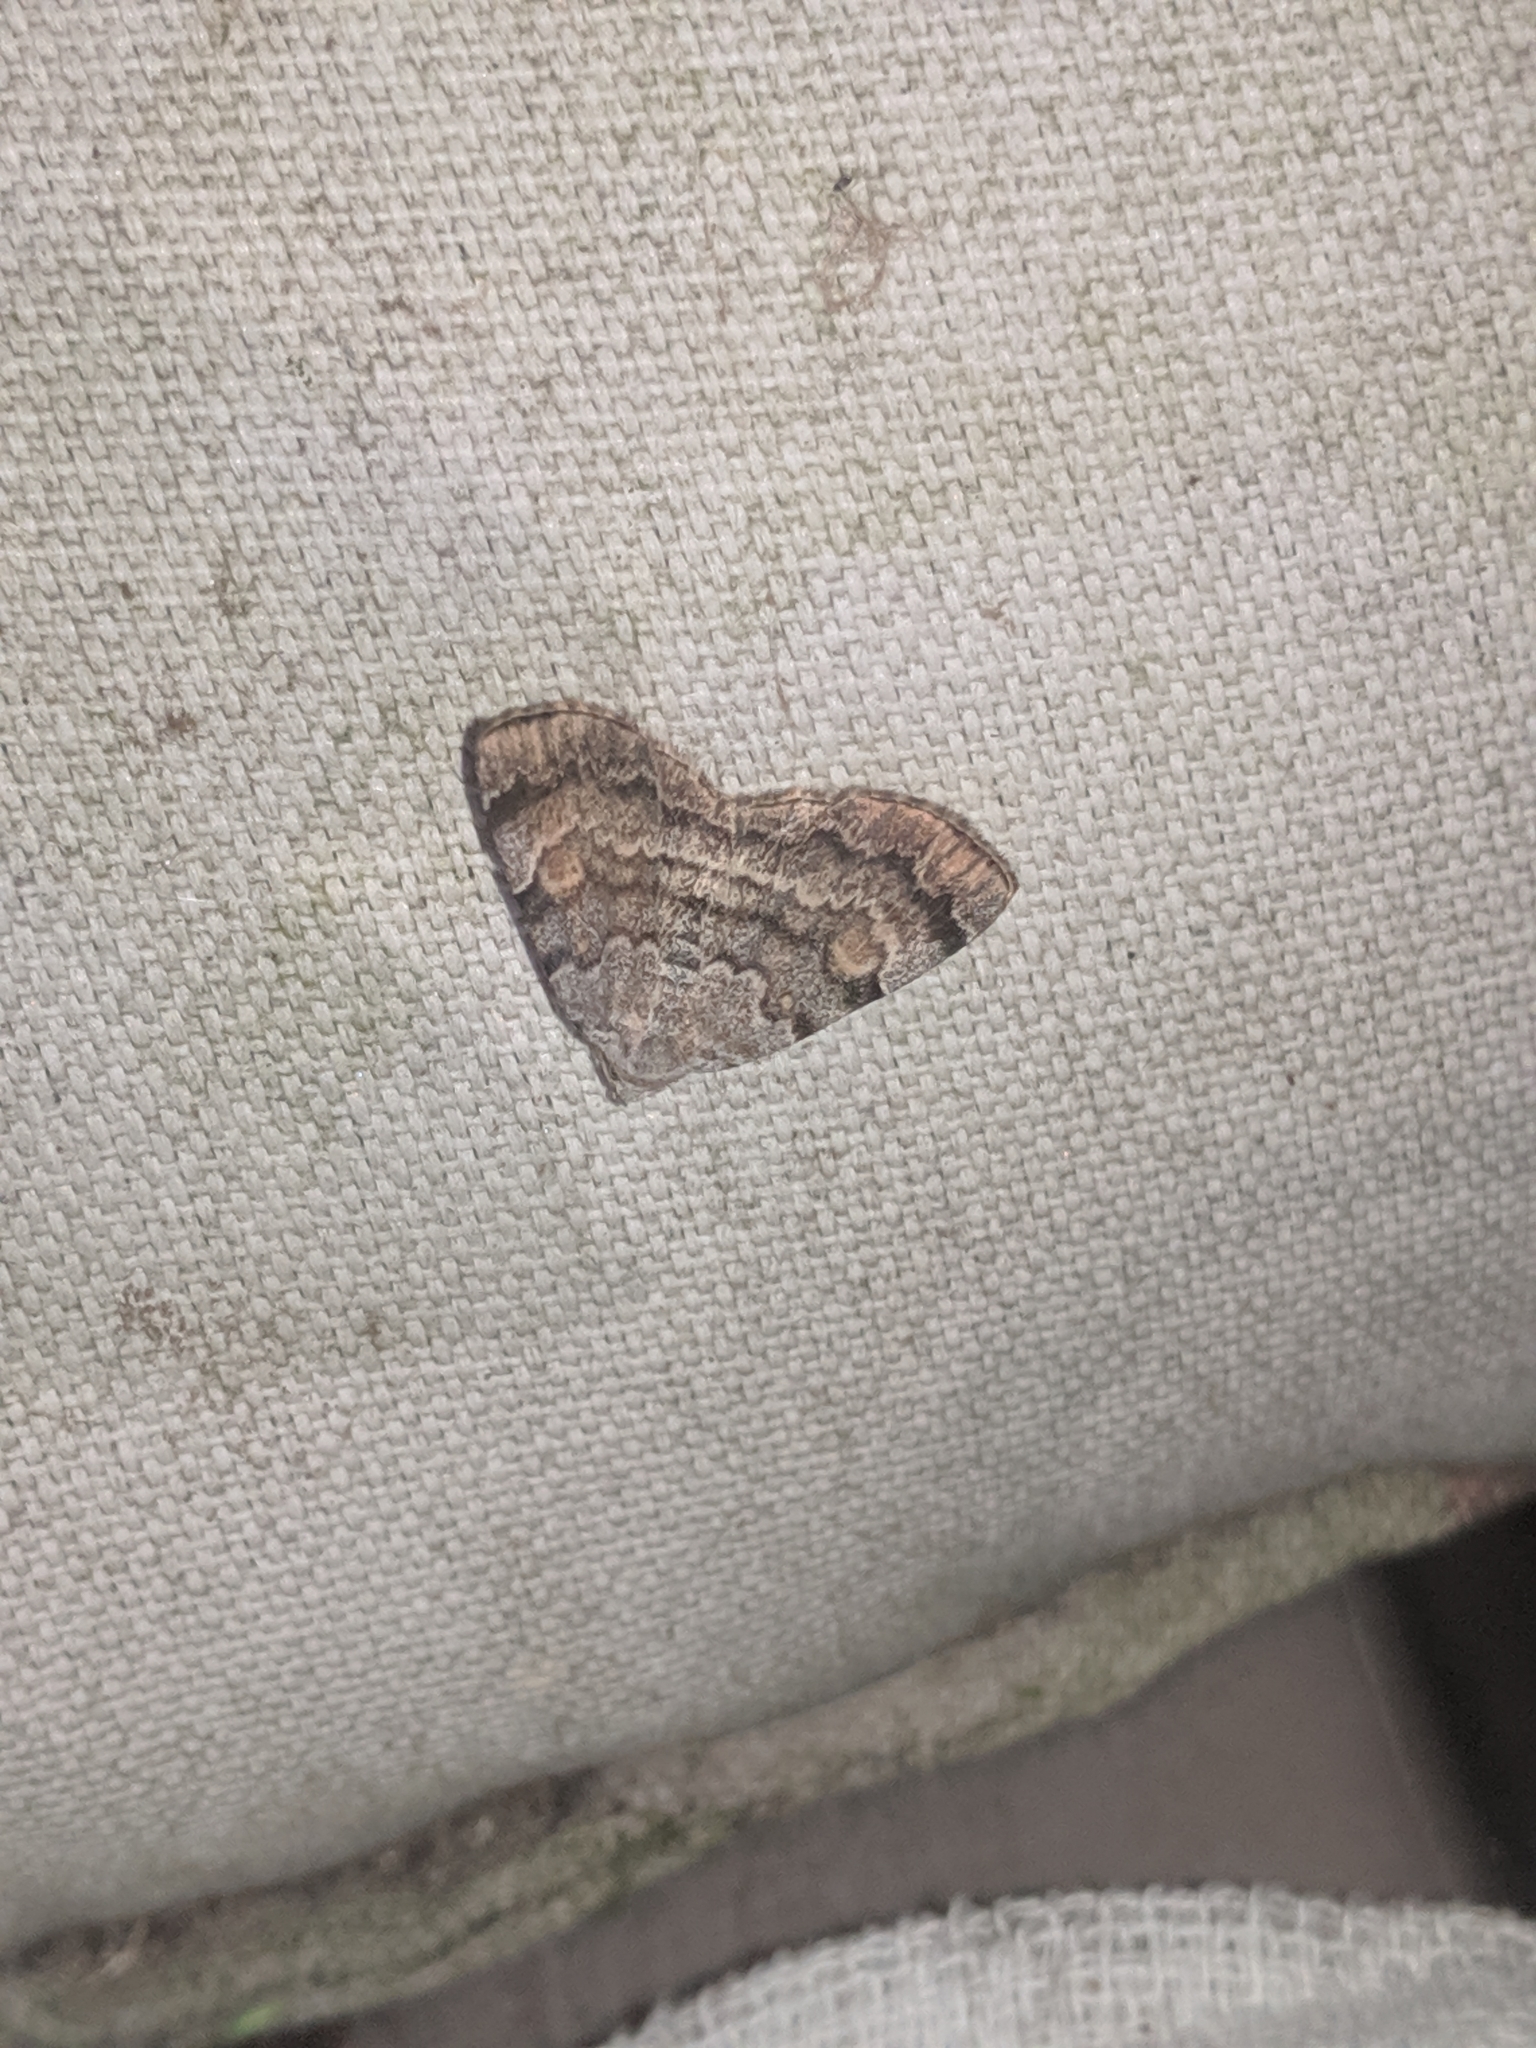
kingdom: Animalia
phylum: Arthropoda
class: Insecta
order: Lepidoptera
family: Erebidae
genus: Idia
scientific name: Idia americalis
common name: American idia moth
